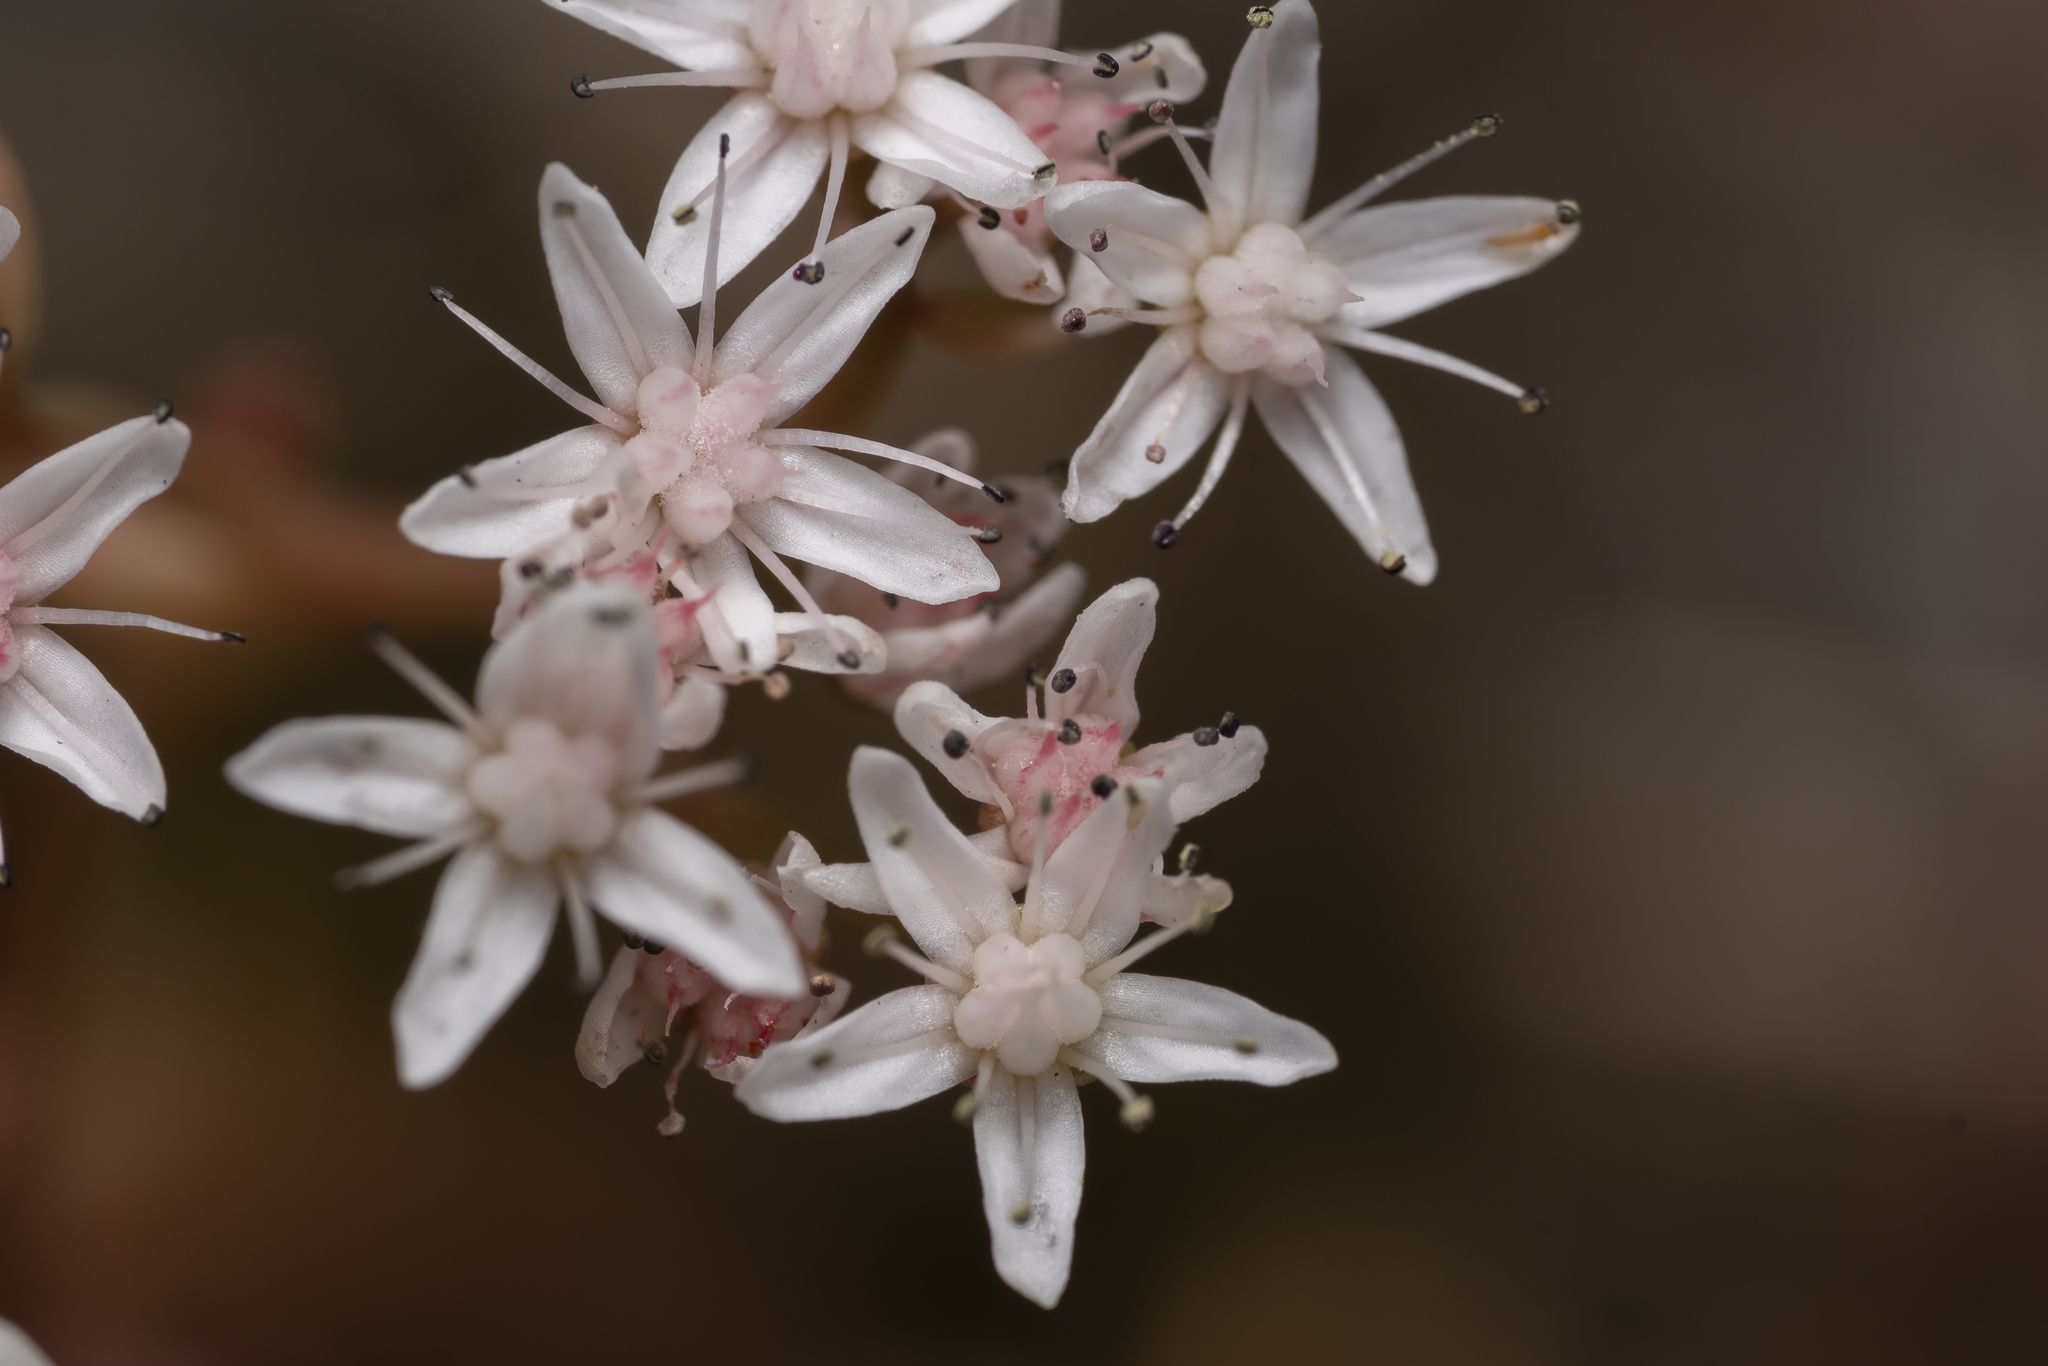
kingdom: Plantae
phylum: Tracheophyta
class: Magnoliopsida
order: Saxifragales
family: Crassulaceae
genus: Sedum
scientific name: Sedum album
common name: White stonecrop
